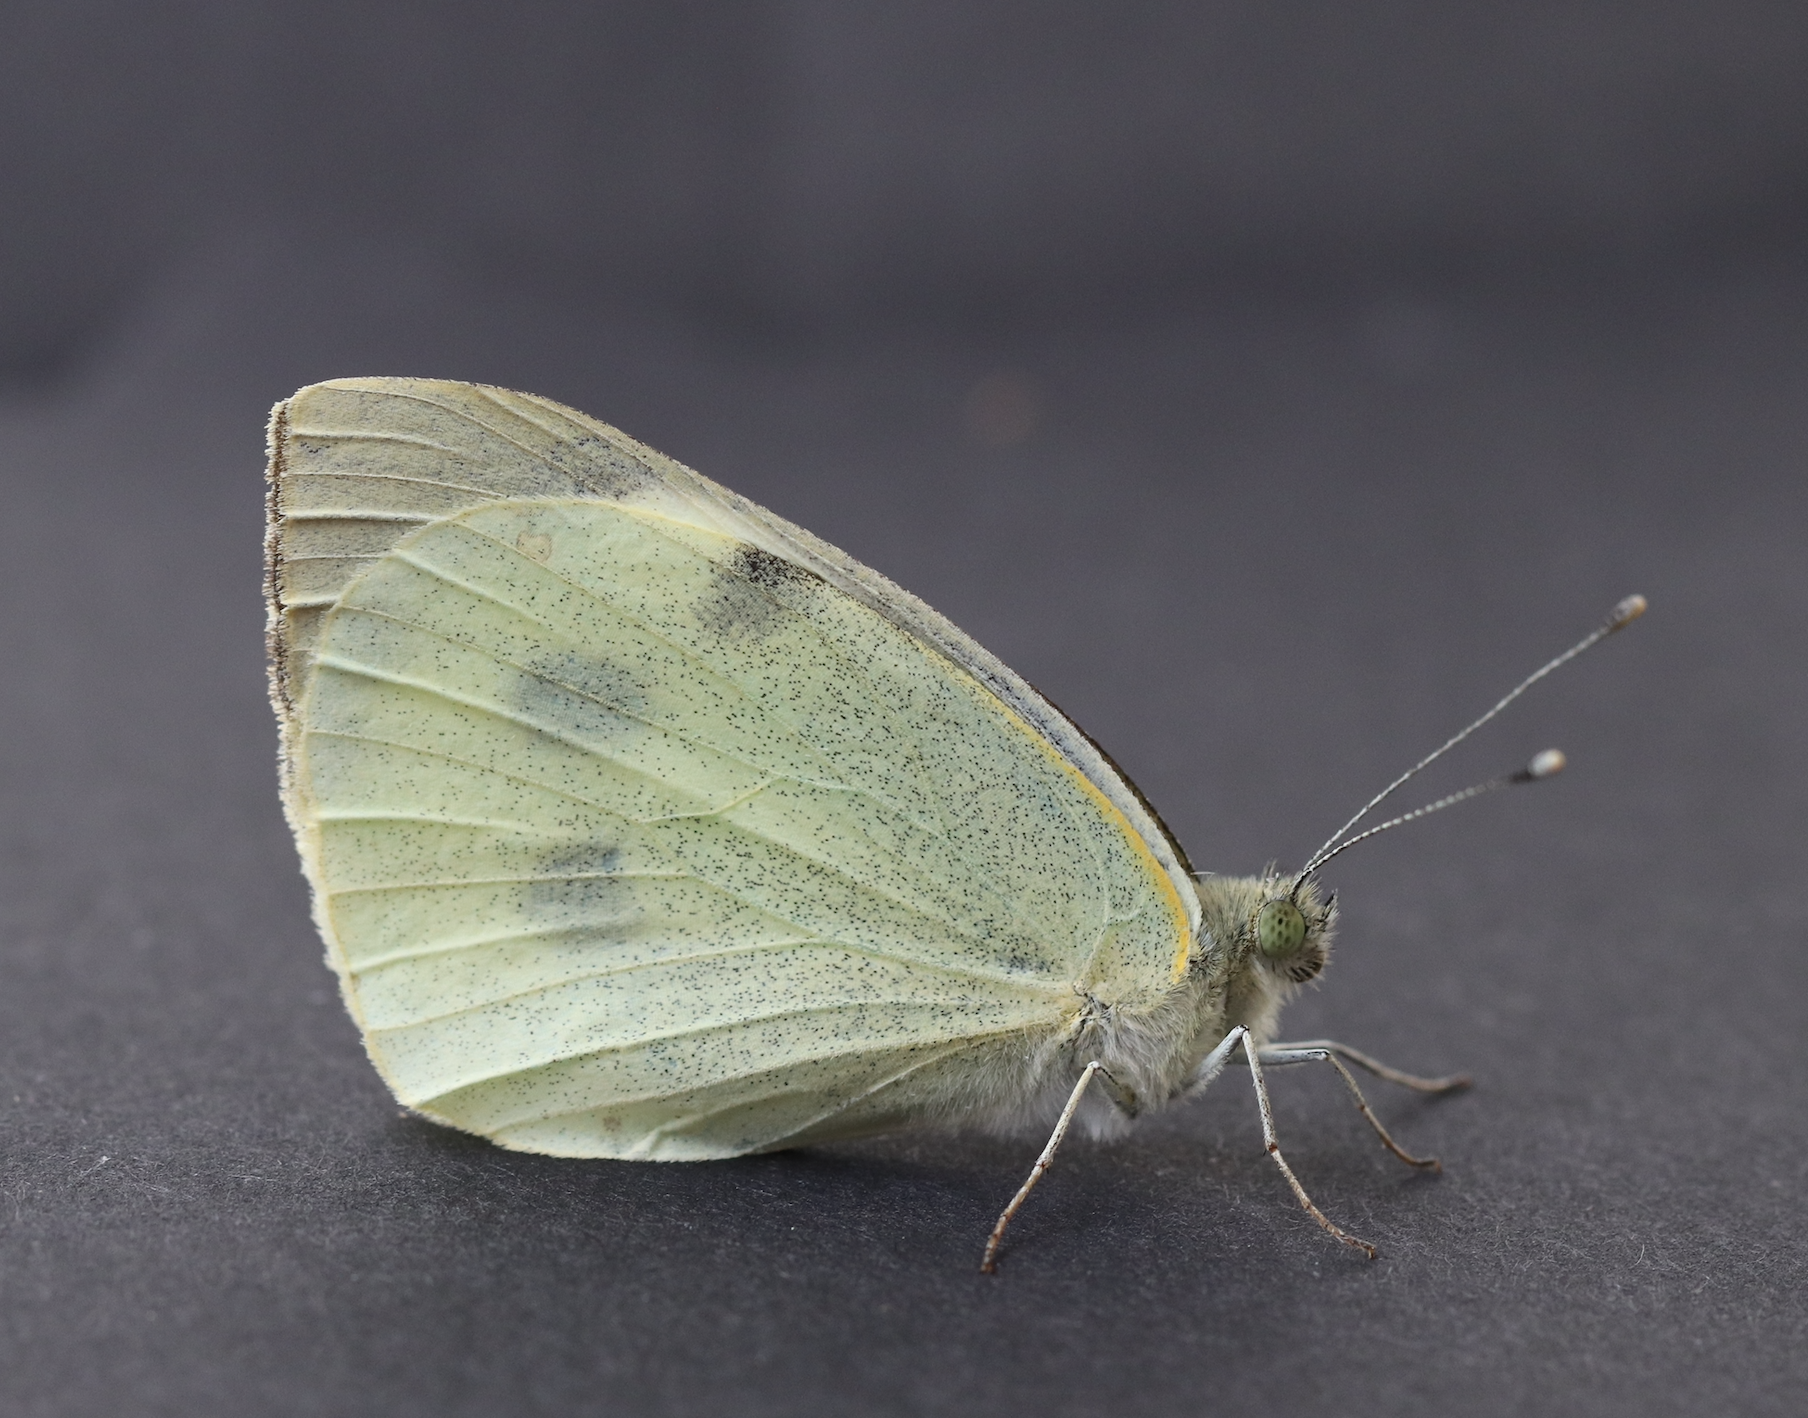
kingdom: Animalia
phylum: Arthropoda
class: Insecta
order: Lepidoptera
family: Pieridae
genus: Pieris
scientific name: Pieris brassicae
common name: Large white
